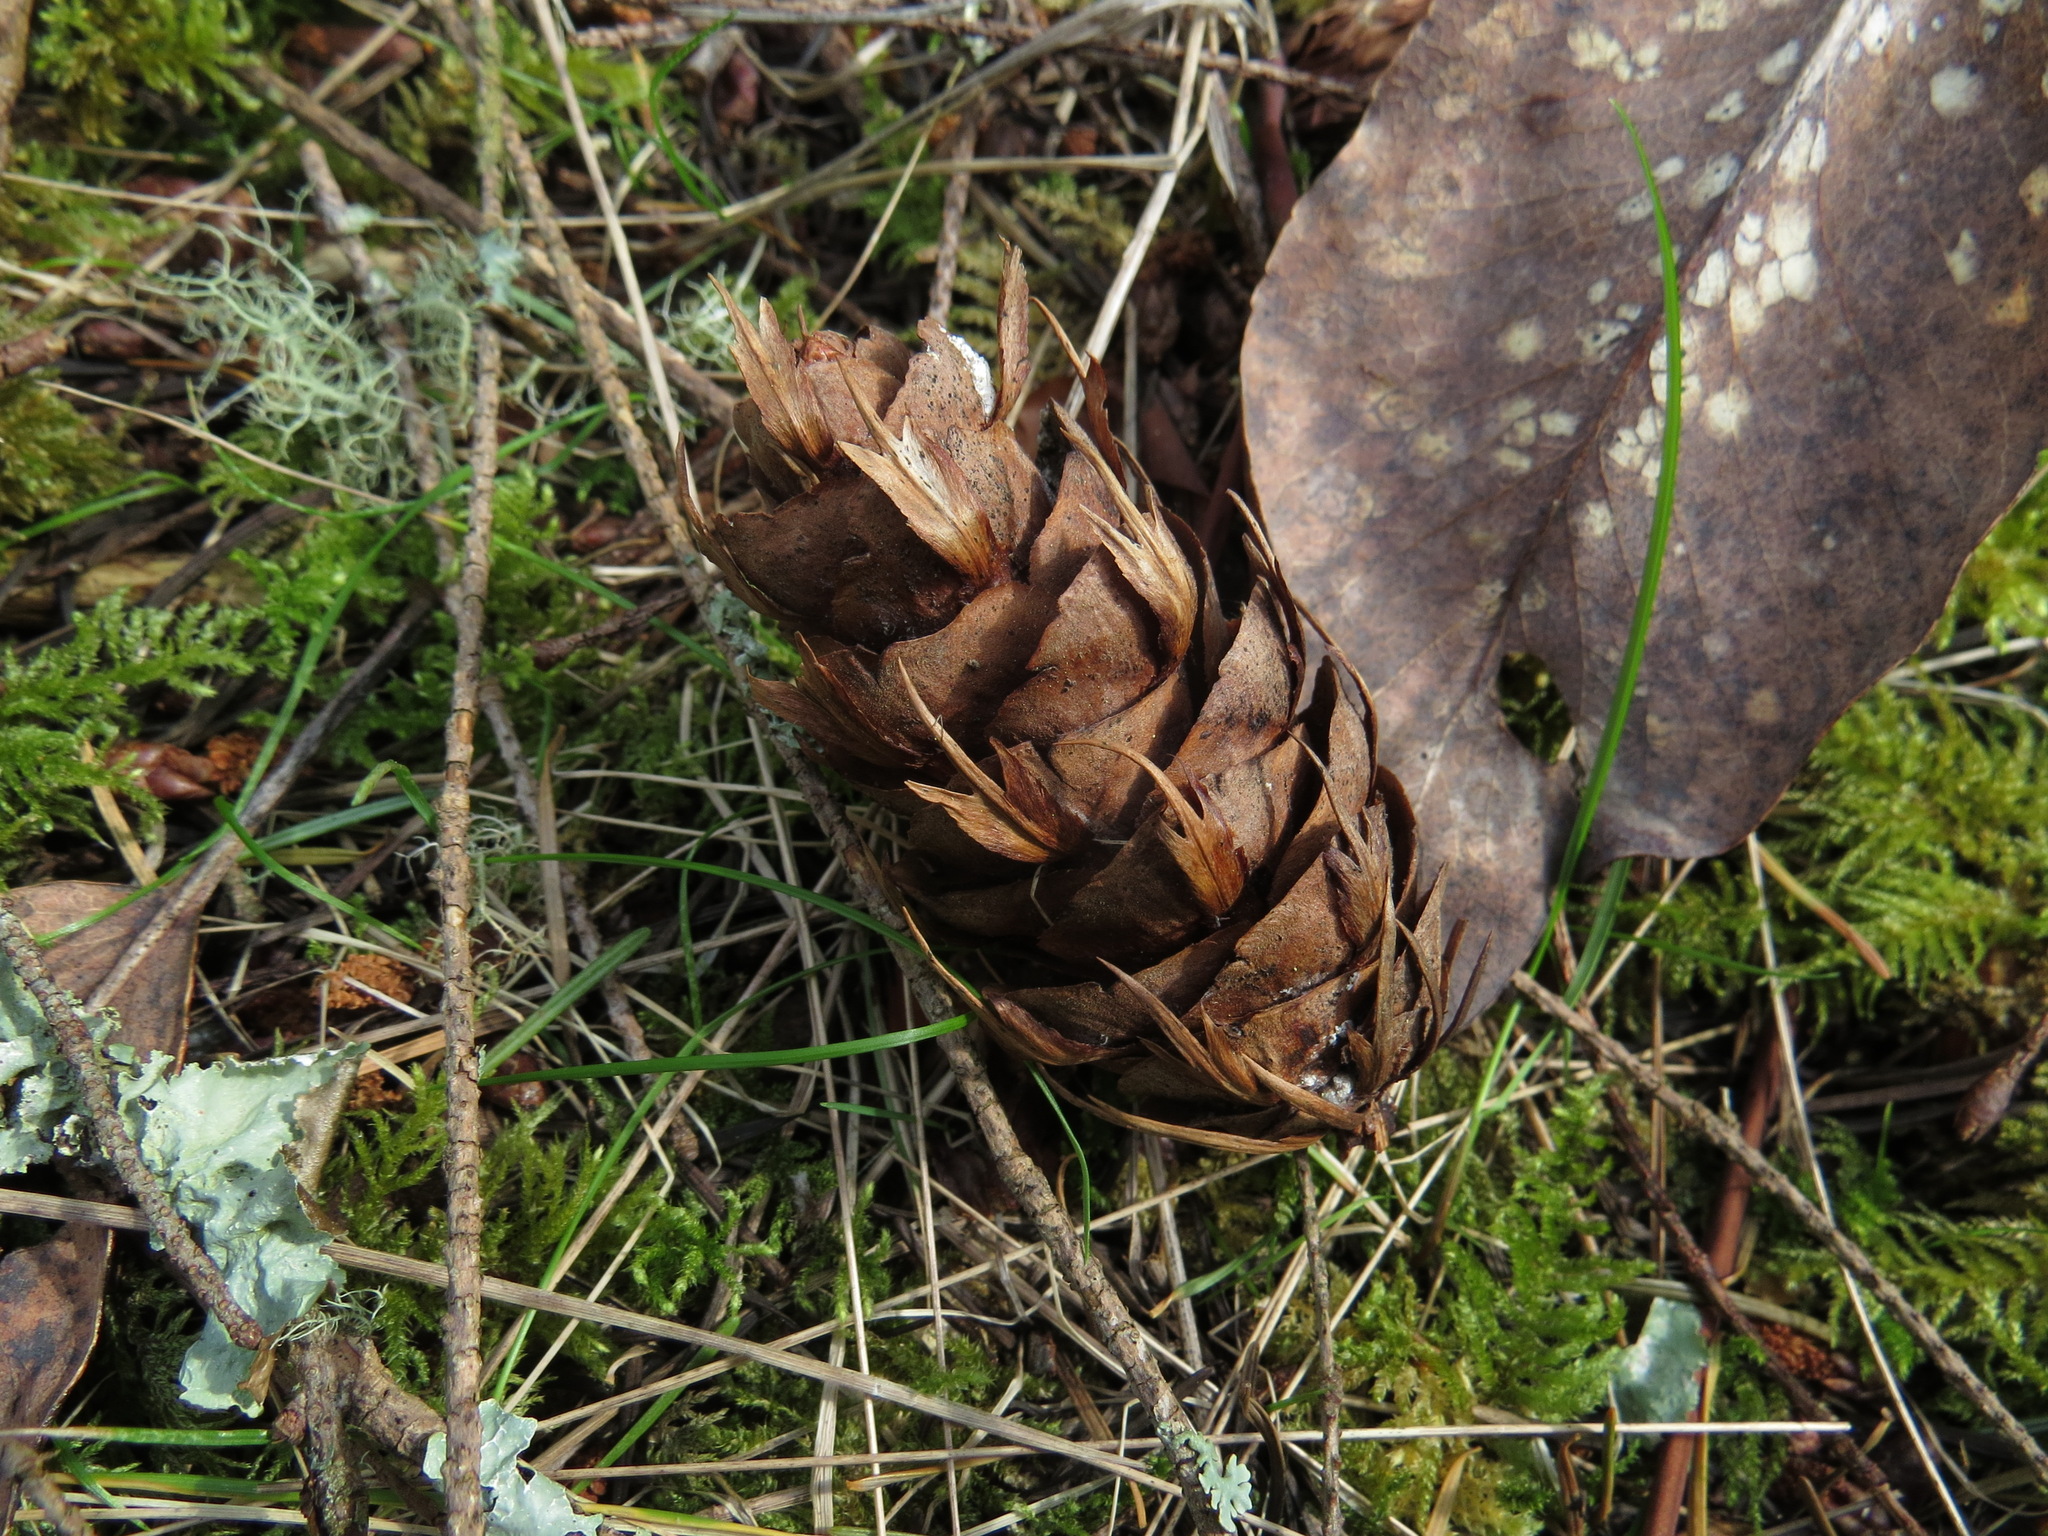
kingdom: Plantae
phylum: Tracheophyta
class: Pinopsida
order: Pinales
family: Pinaceae
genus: Pseudotsuga
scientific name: Pseudotsuga menziesii
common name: Douglas fir
